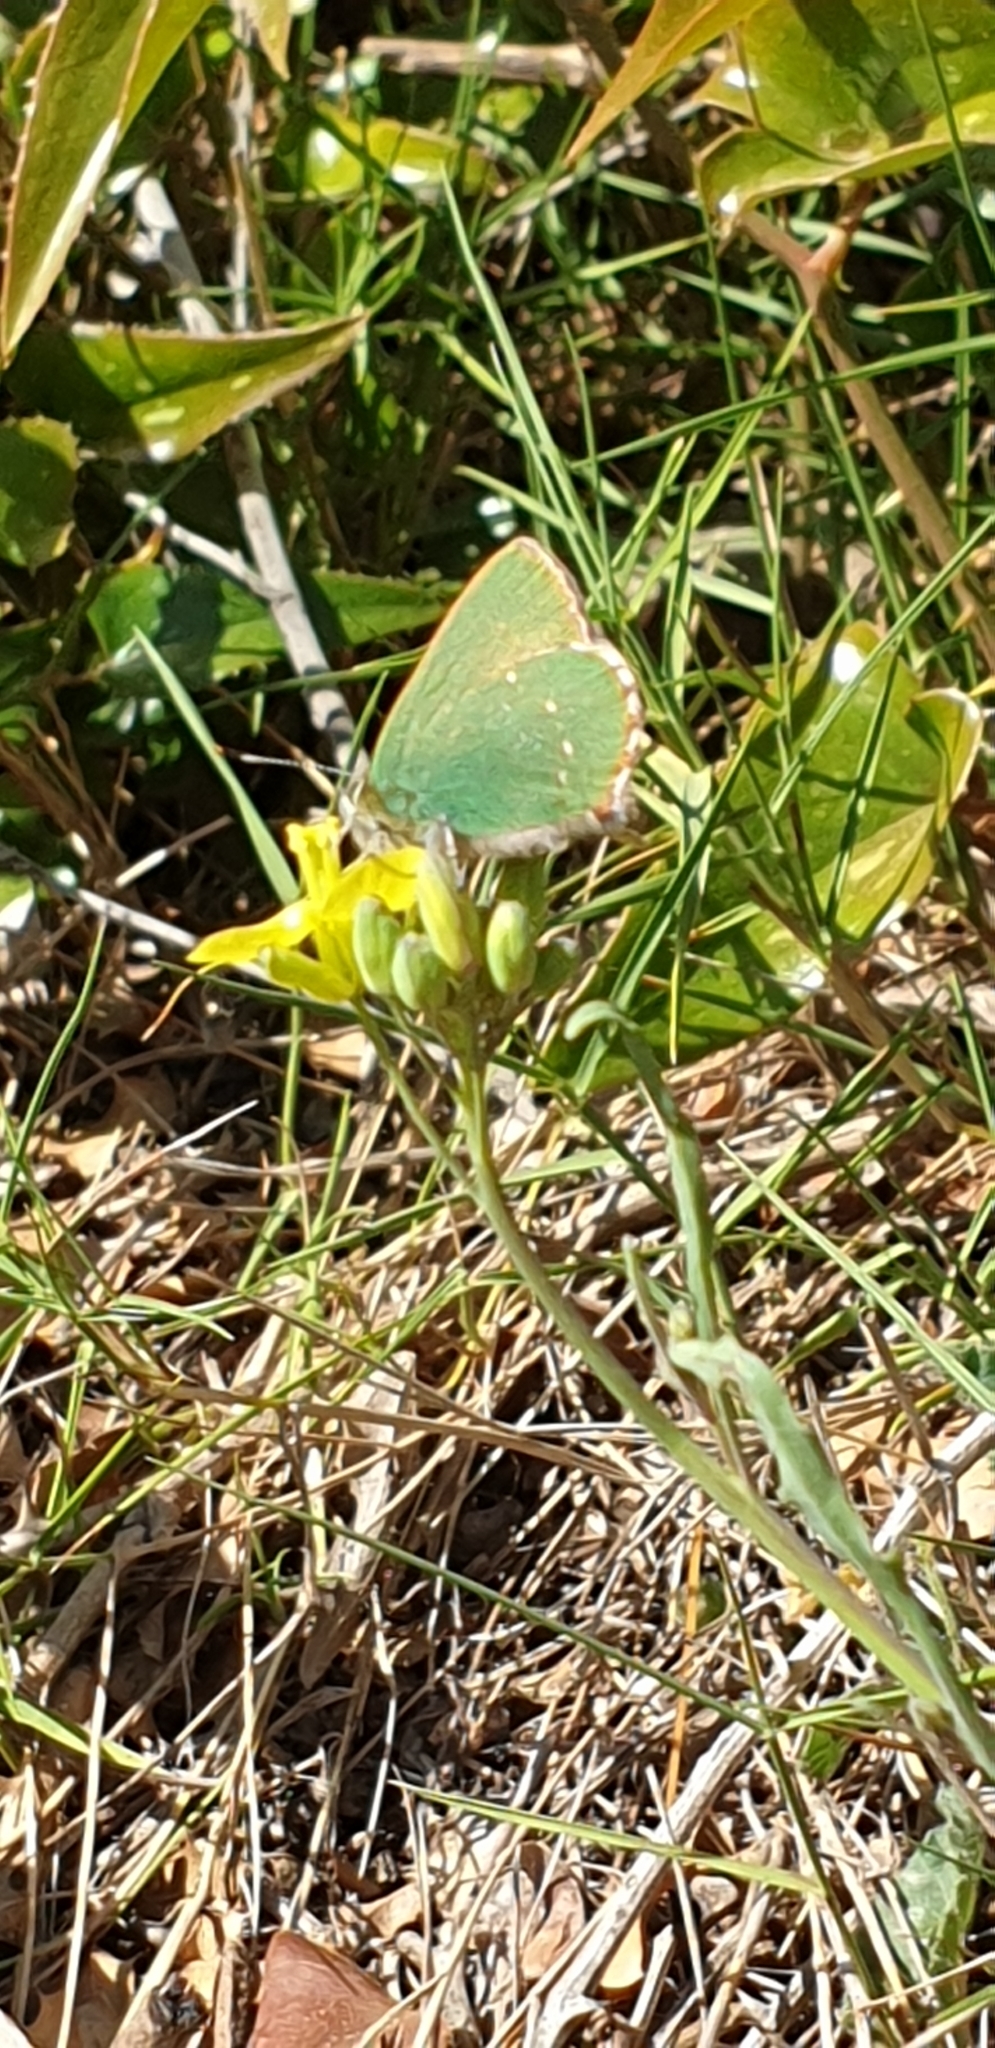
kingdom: Animalia
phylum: Arthropoda
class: Insecta
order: Lepidoptera
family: Lycaenidae
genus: Callophrys
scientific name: Callophrys rubi
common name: Green hairstreak
